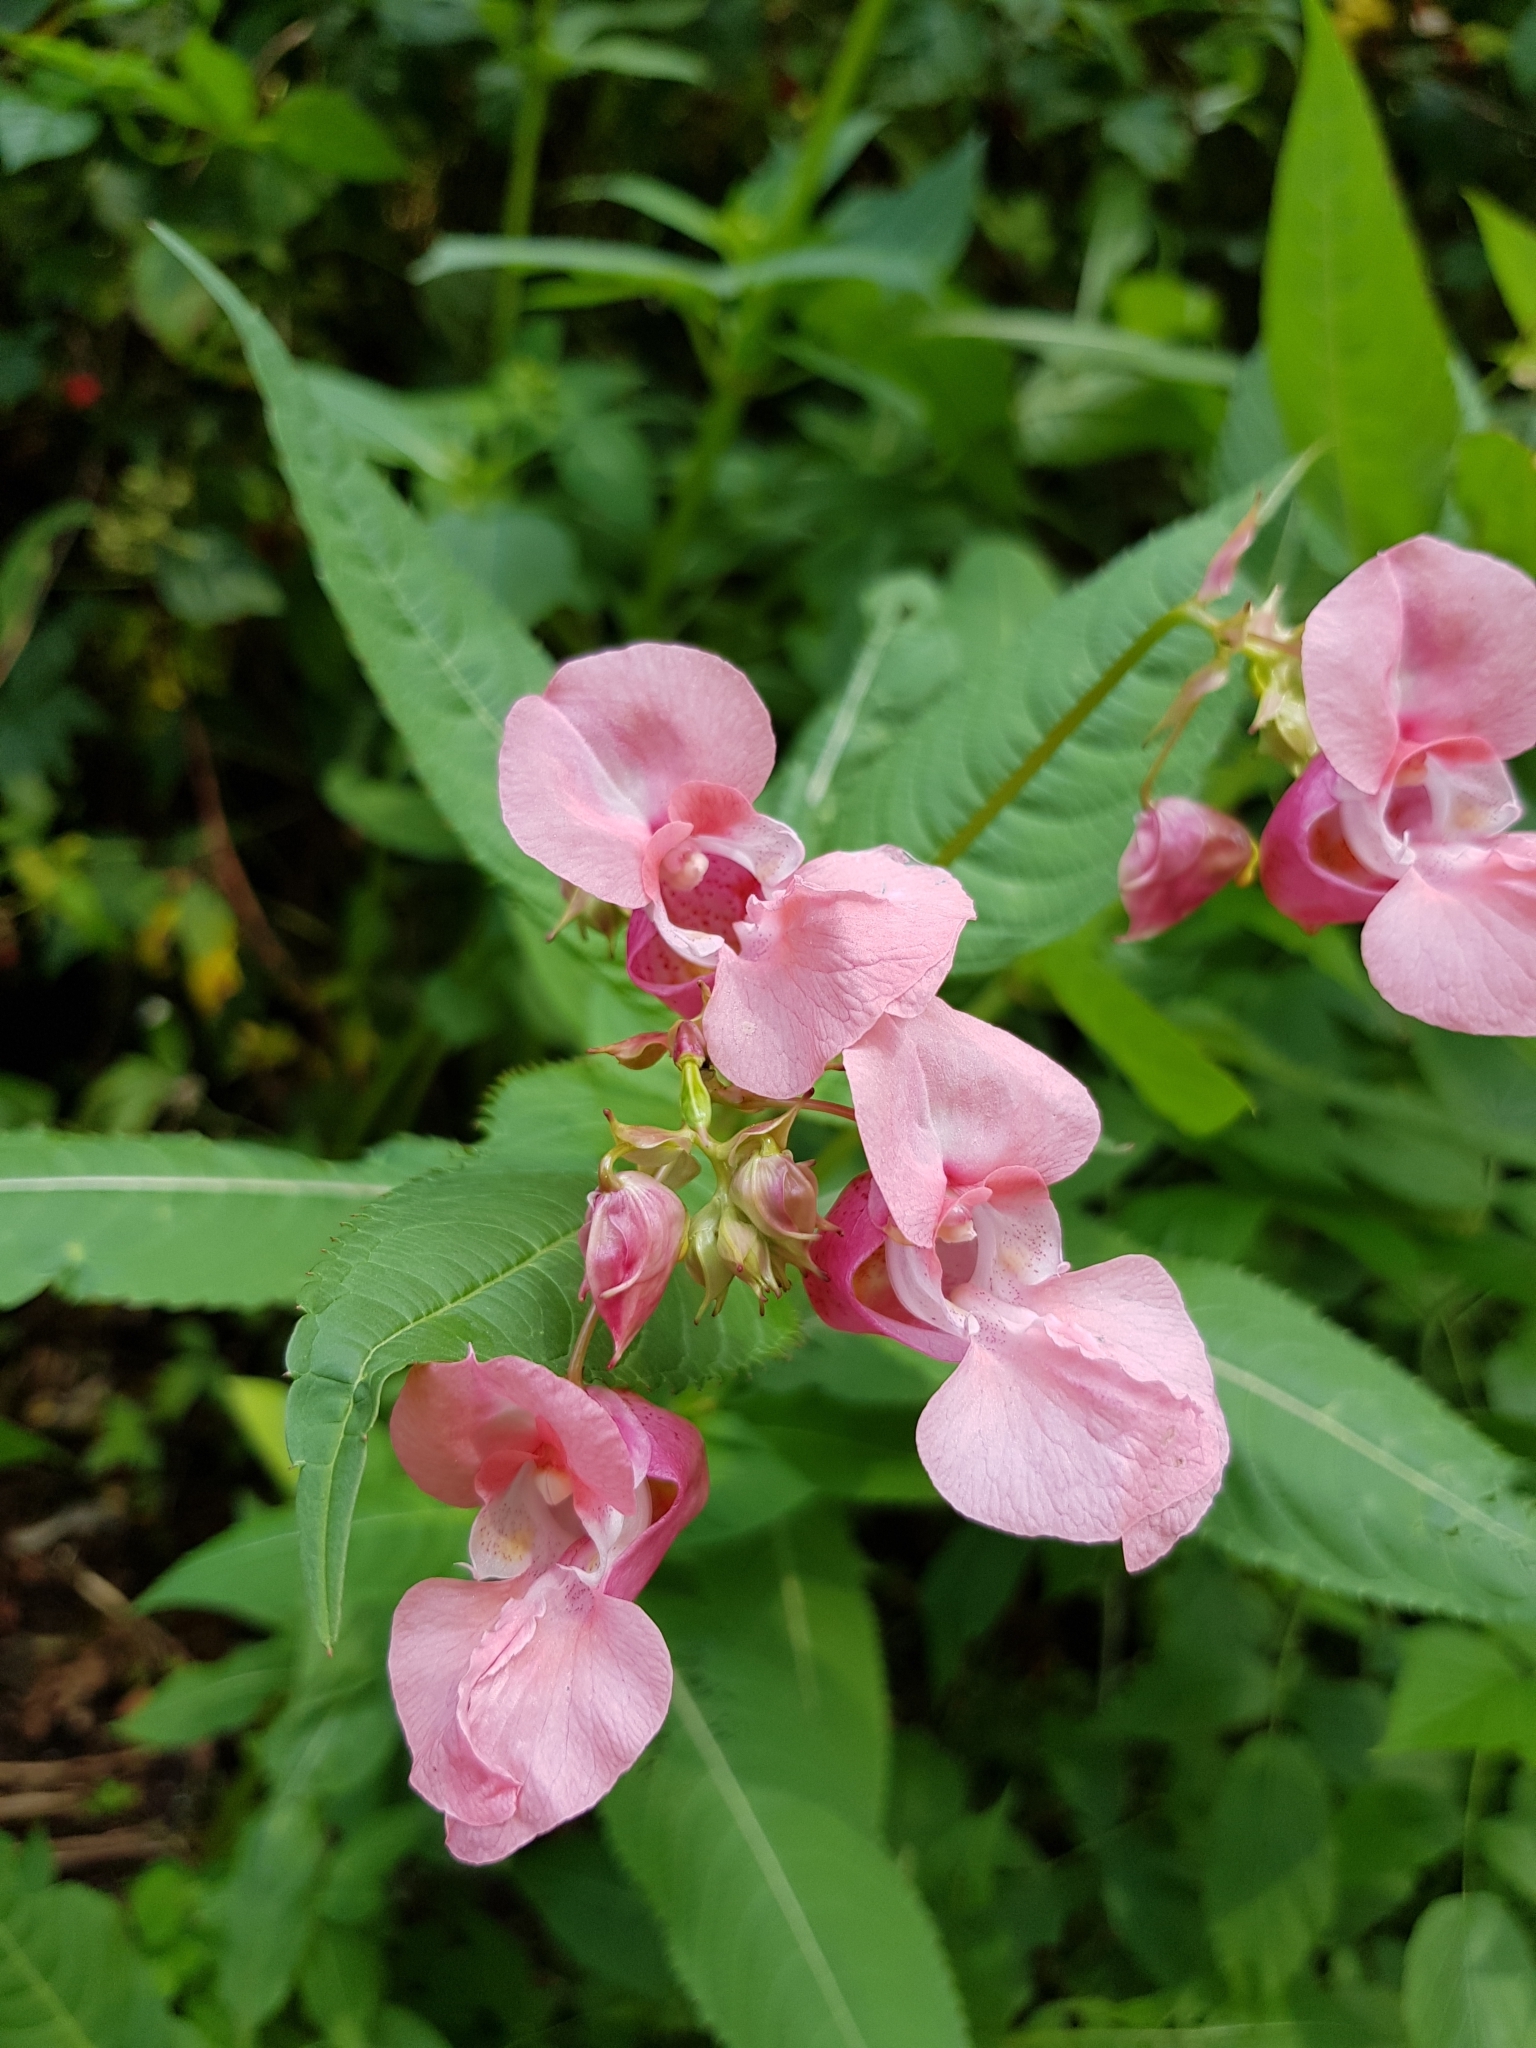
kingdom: Plantae
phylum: Tracheophyta
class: Magnoliopsida
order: Ericales
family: Balsaminaceae
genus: Impatiens
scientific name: Impatiens glandulifera
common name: Himalayan balsam
